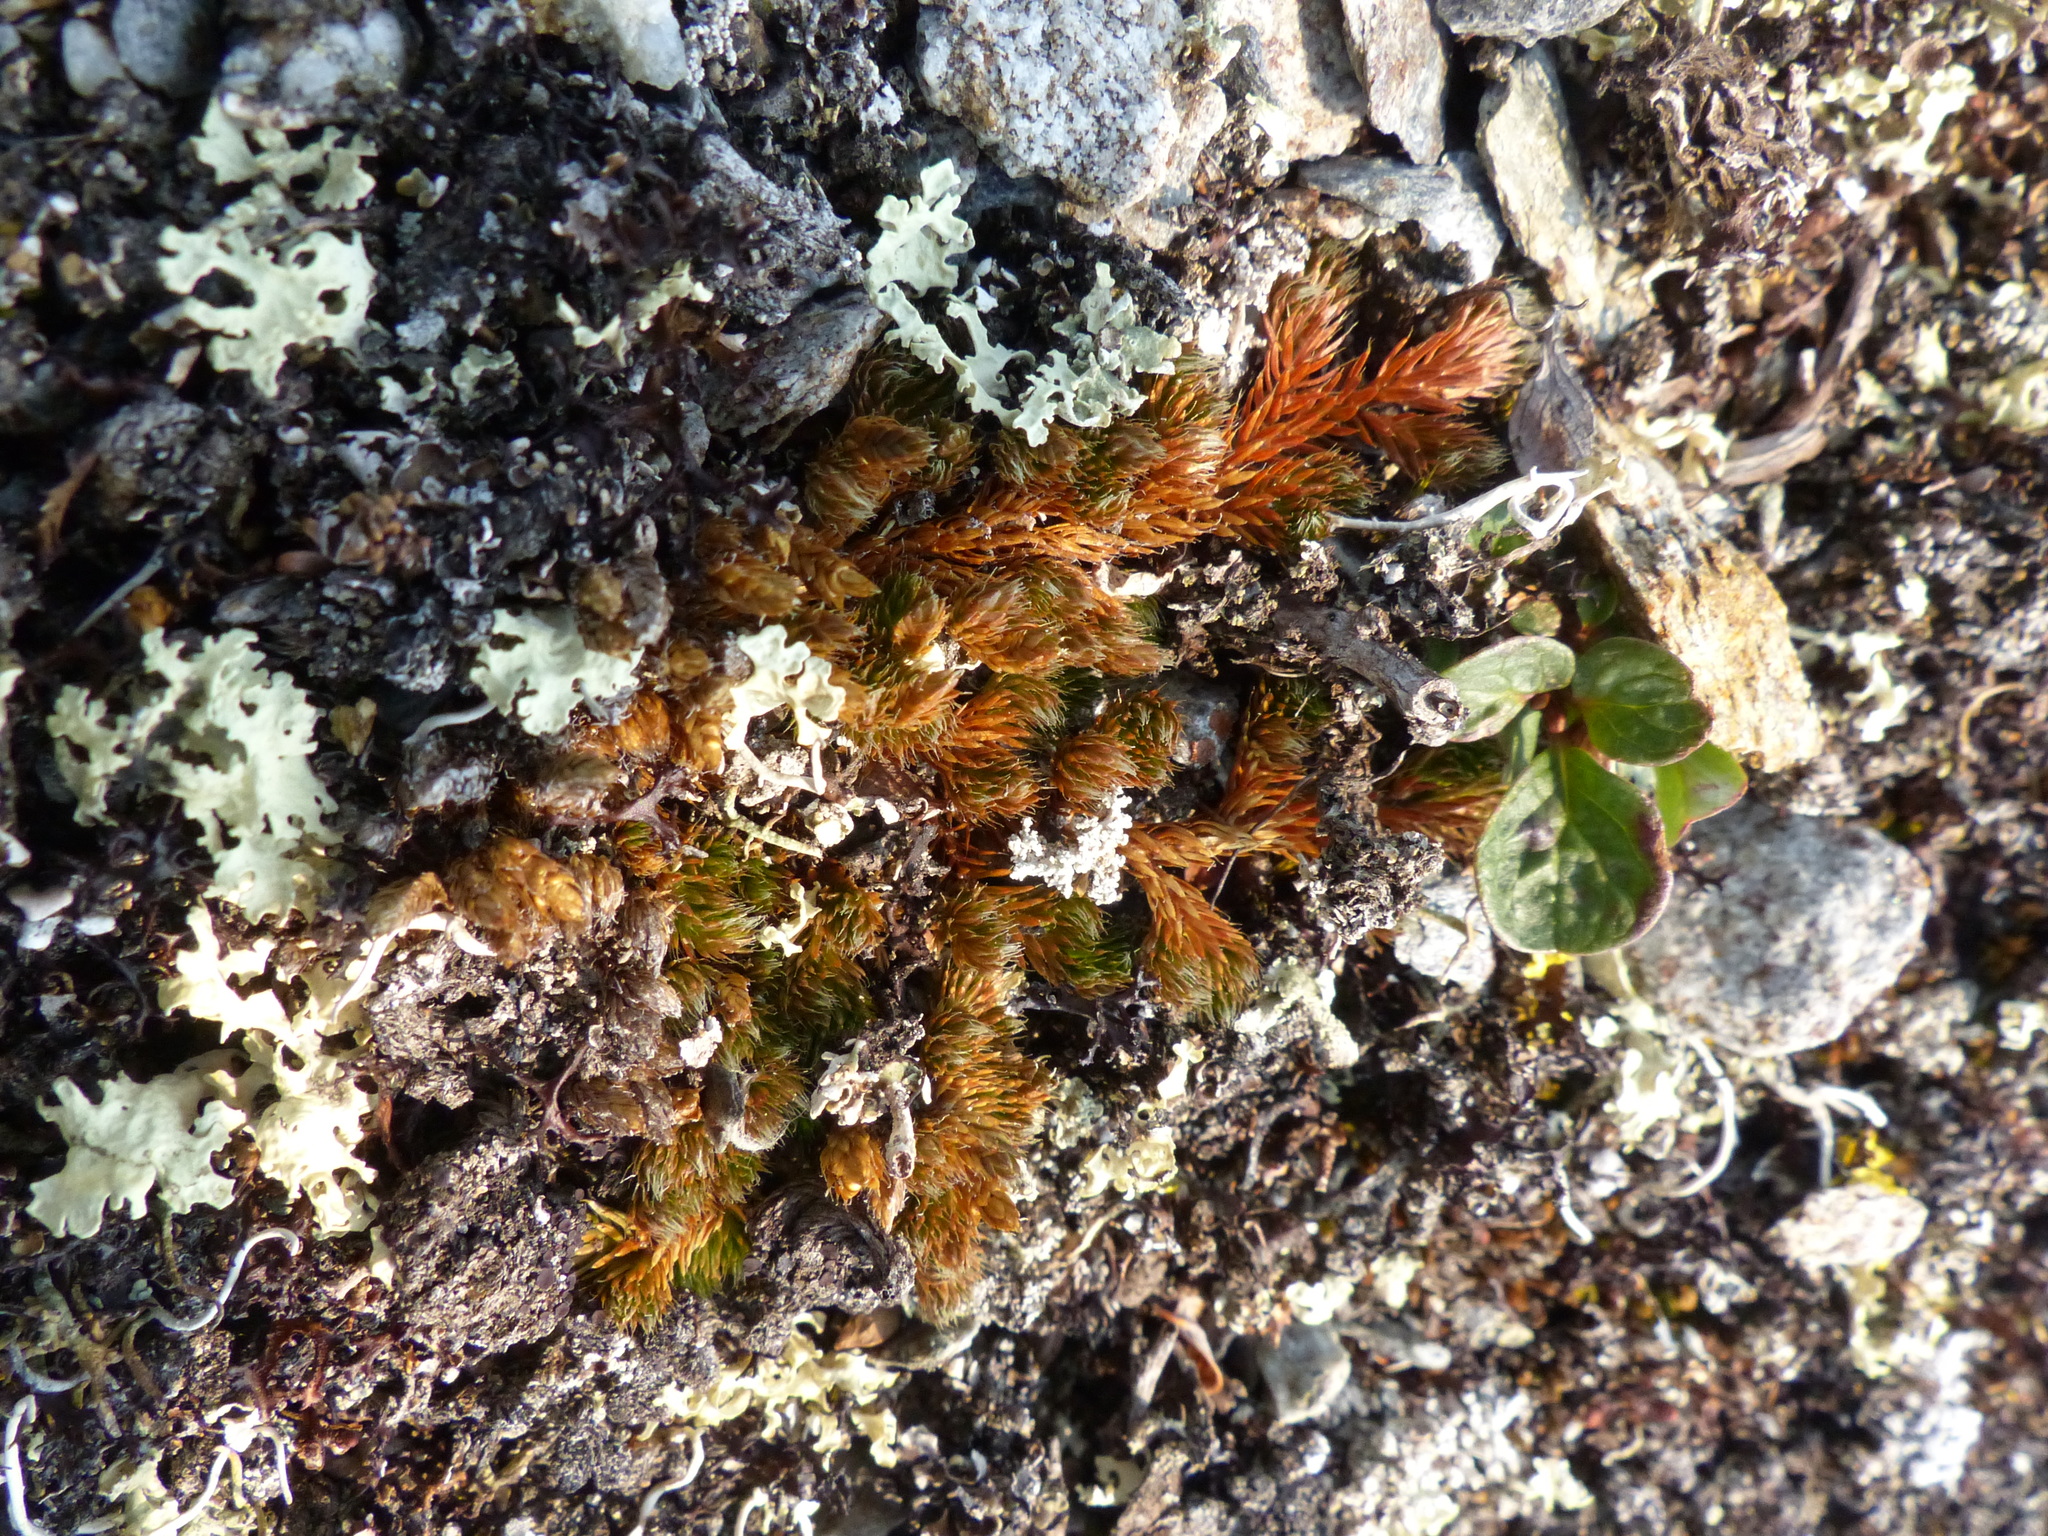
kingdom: Plantae
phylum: Tracheophyta
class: Lycopodiopsida
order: Selaginellales
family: Selaginellaceae
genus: Selaginella
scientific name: Selaginella densa
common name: Mountain spike-moss
